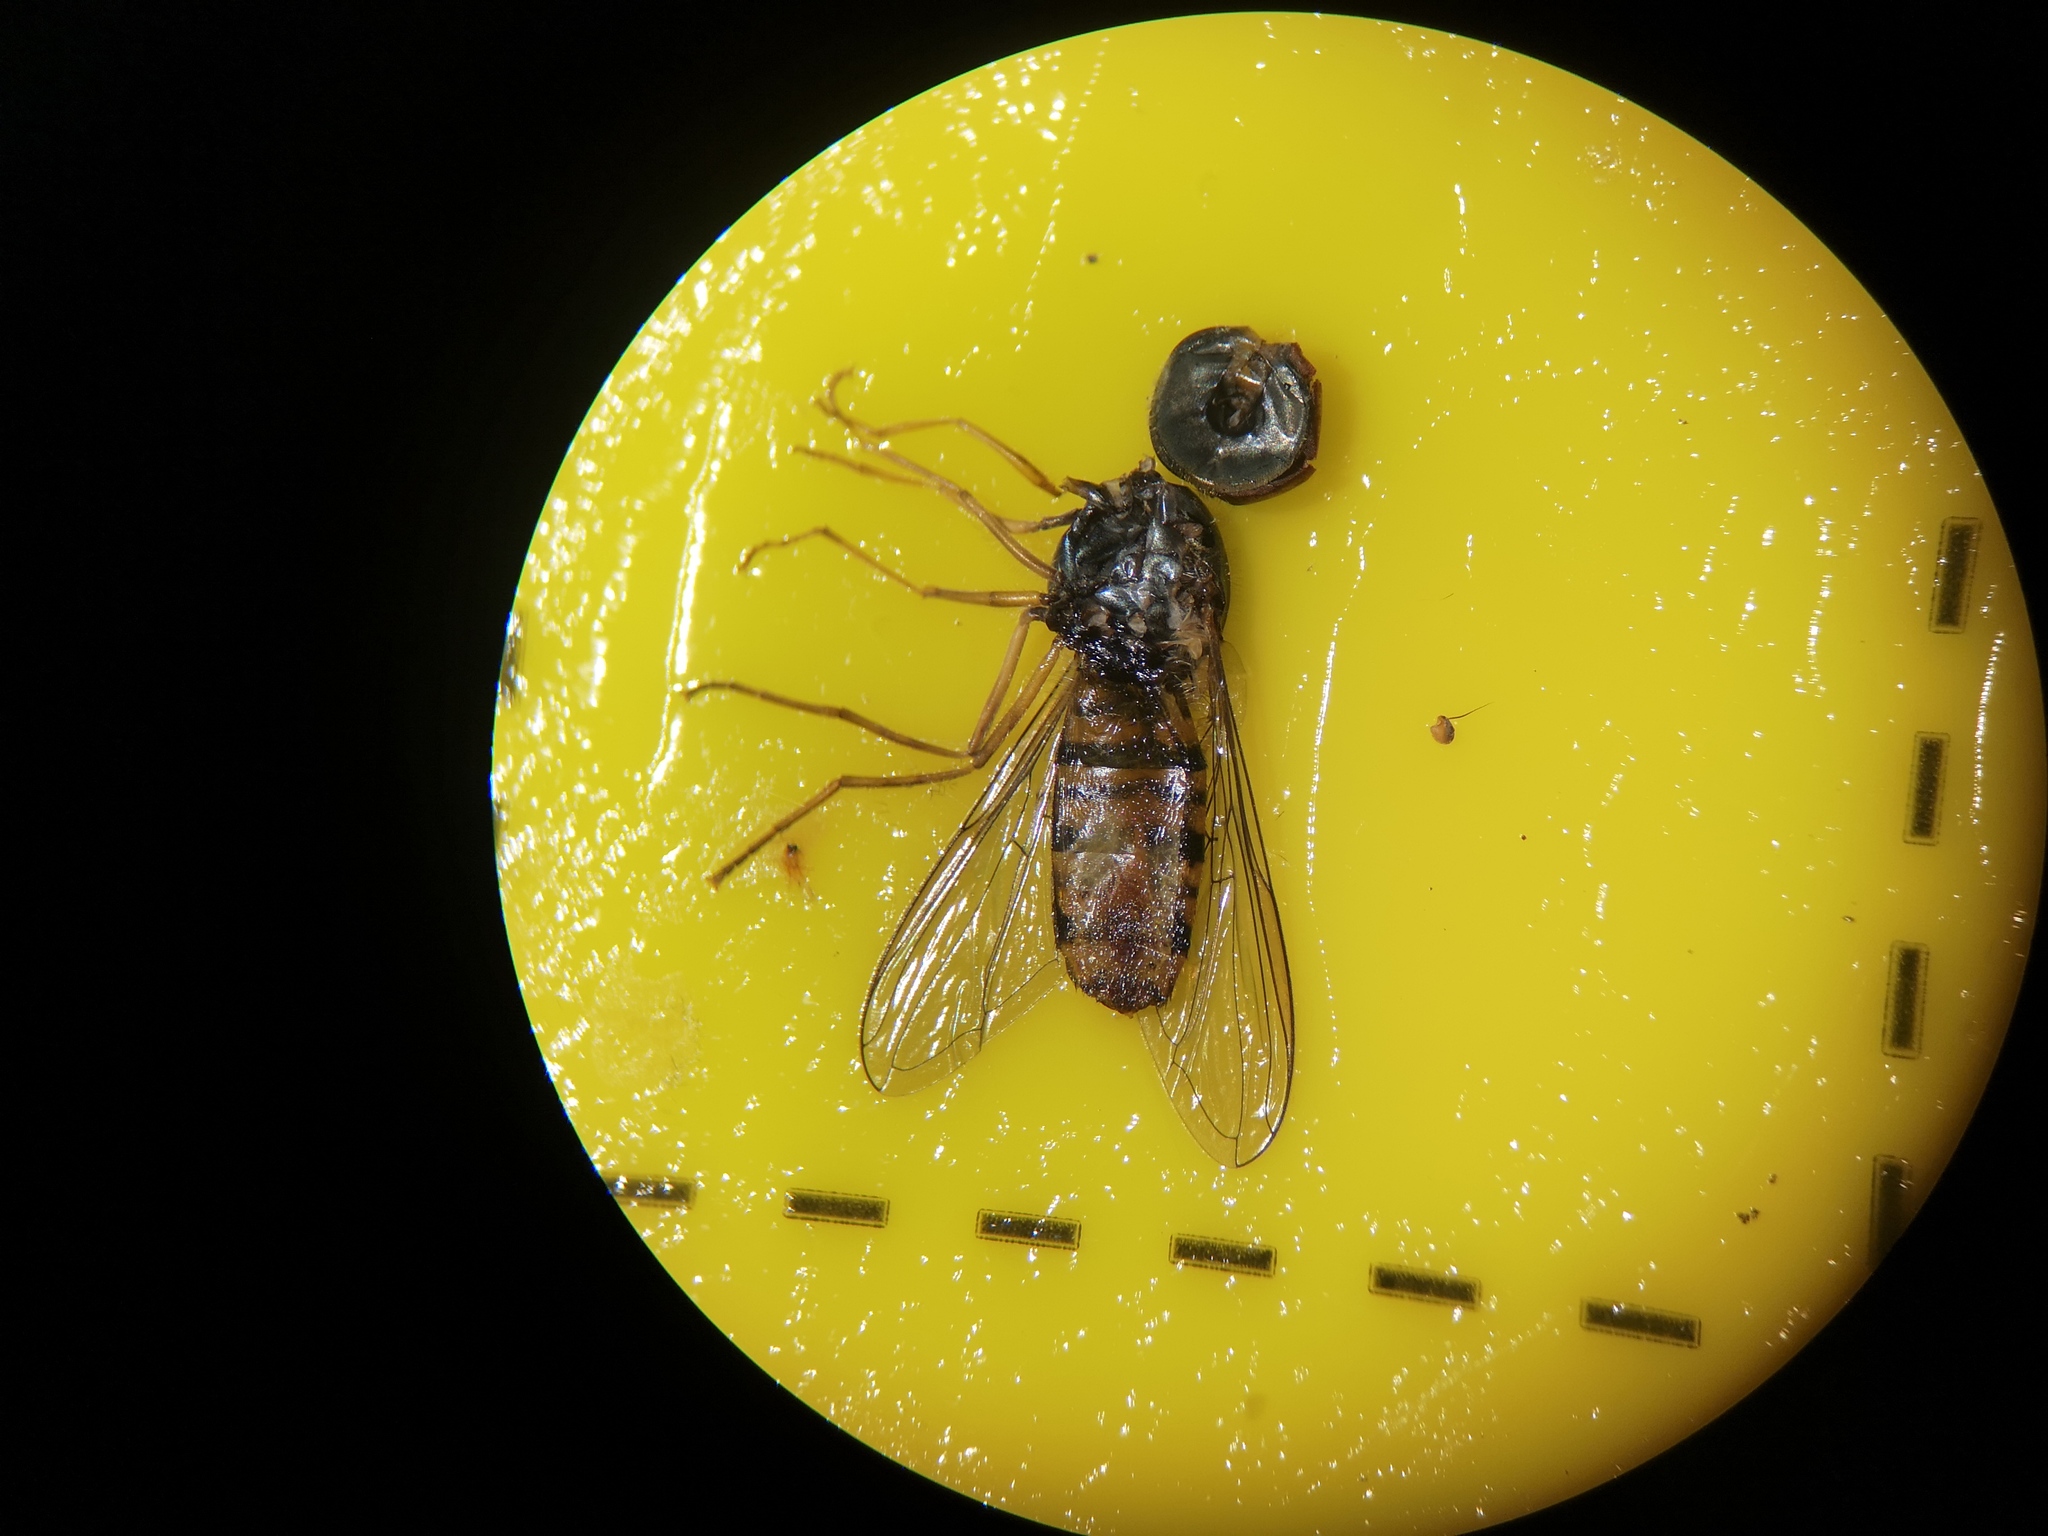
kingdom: Animalia
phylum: Arthropoda
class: Insecta
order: Diptera
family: Syrphidae
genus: Episyrphus
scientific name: Episyrphus balteatus
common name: Marmalade hoverfly
